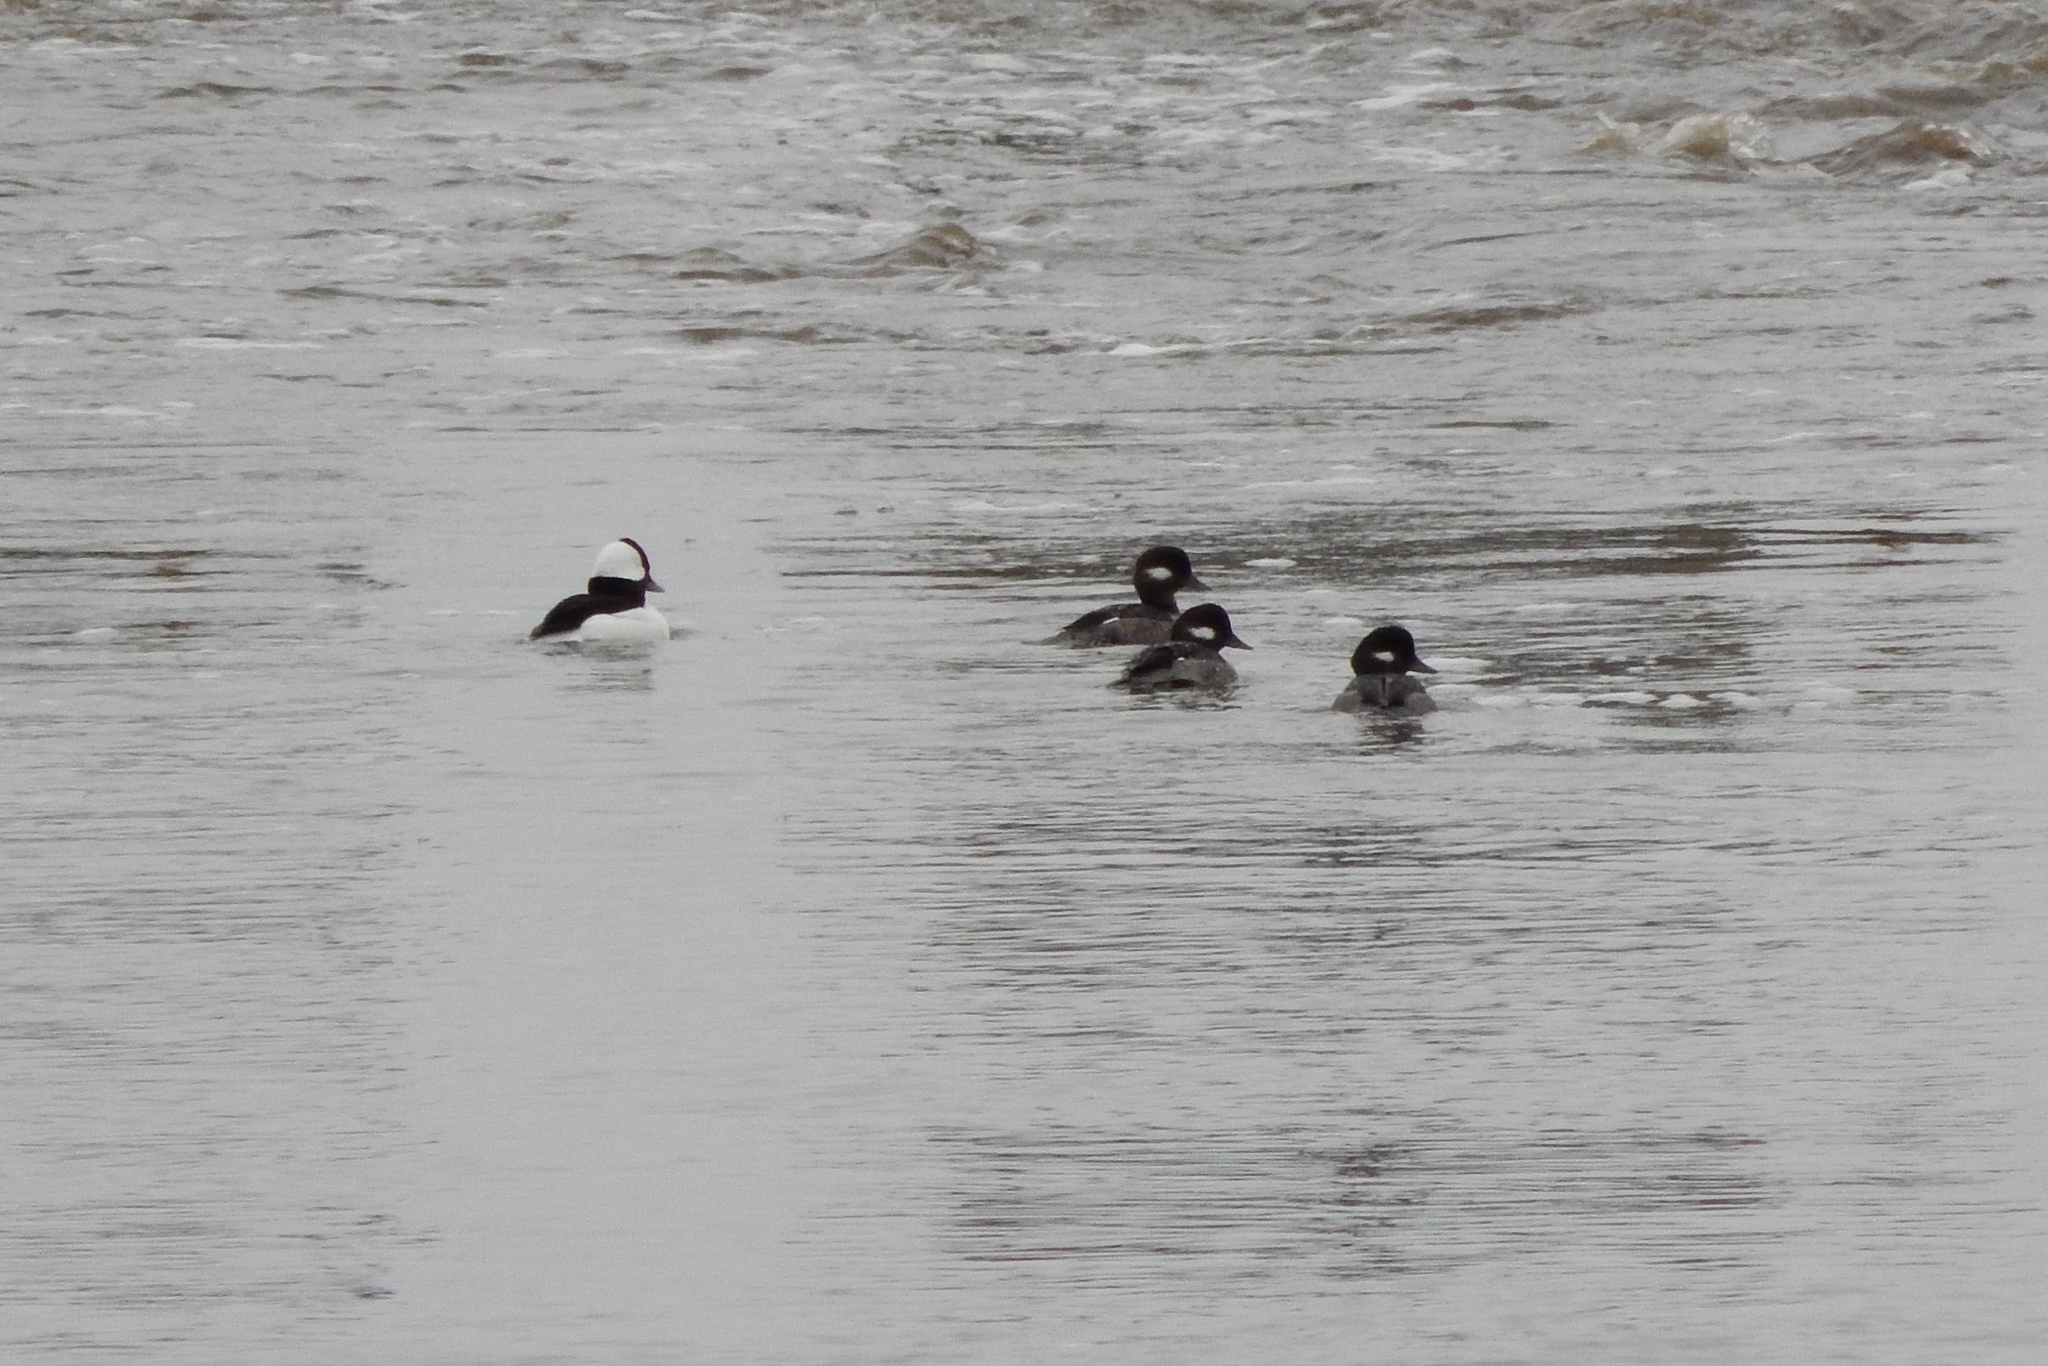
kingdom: Animalia
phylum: Chordata
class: Aves
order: Anseriformes
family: Anatidae
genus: Bucephala
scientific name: Bucephala albeola
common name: Bufflehead
